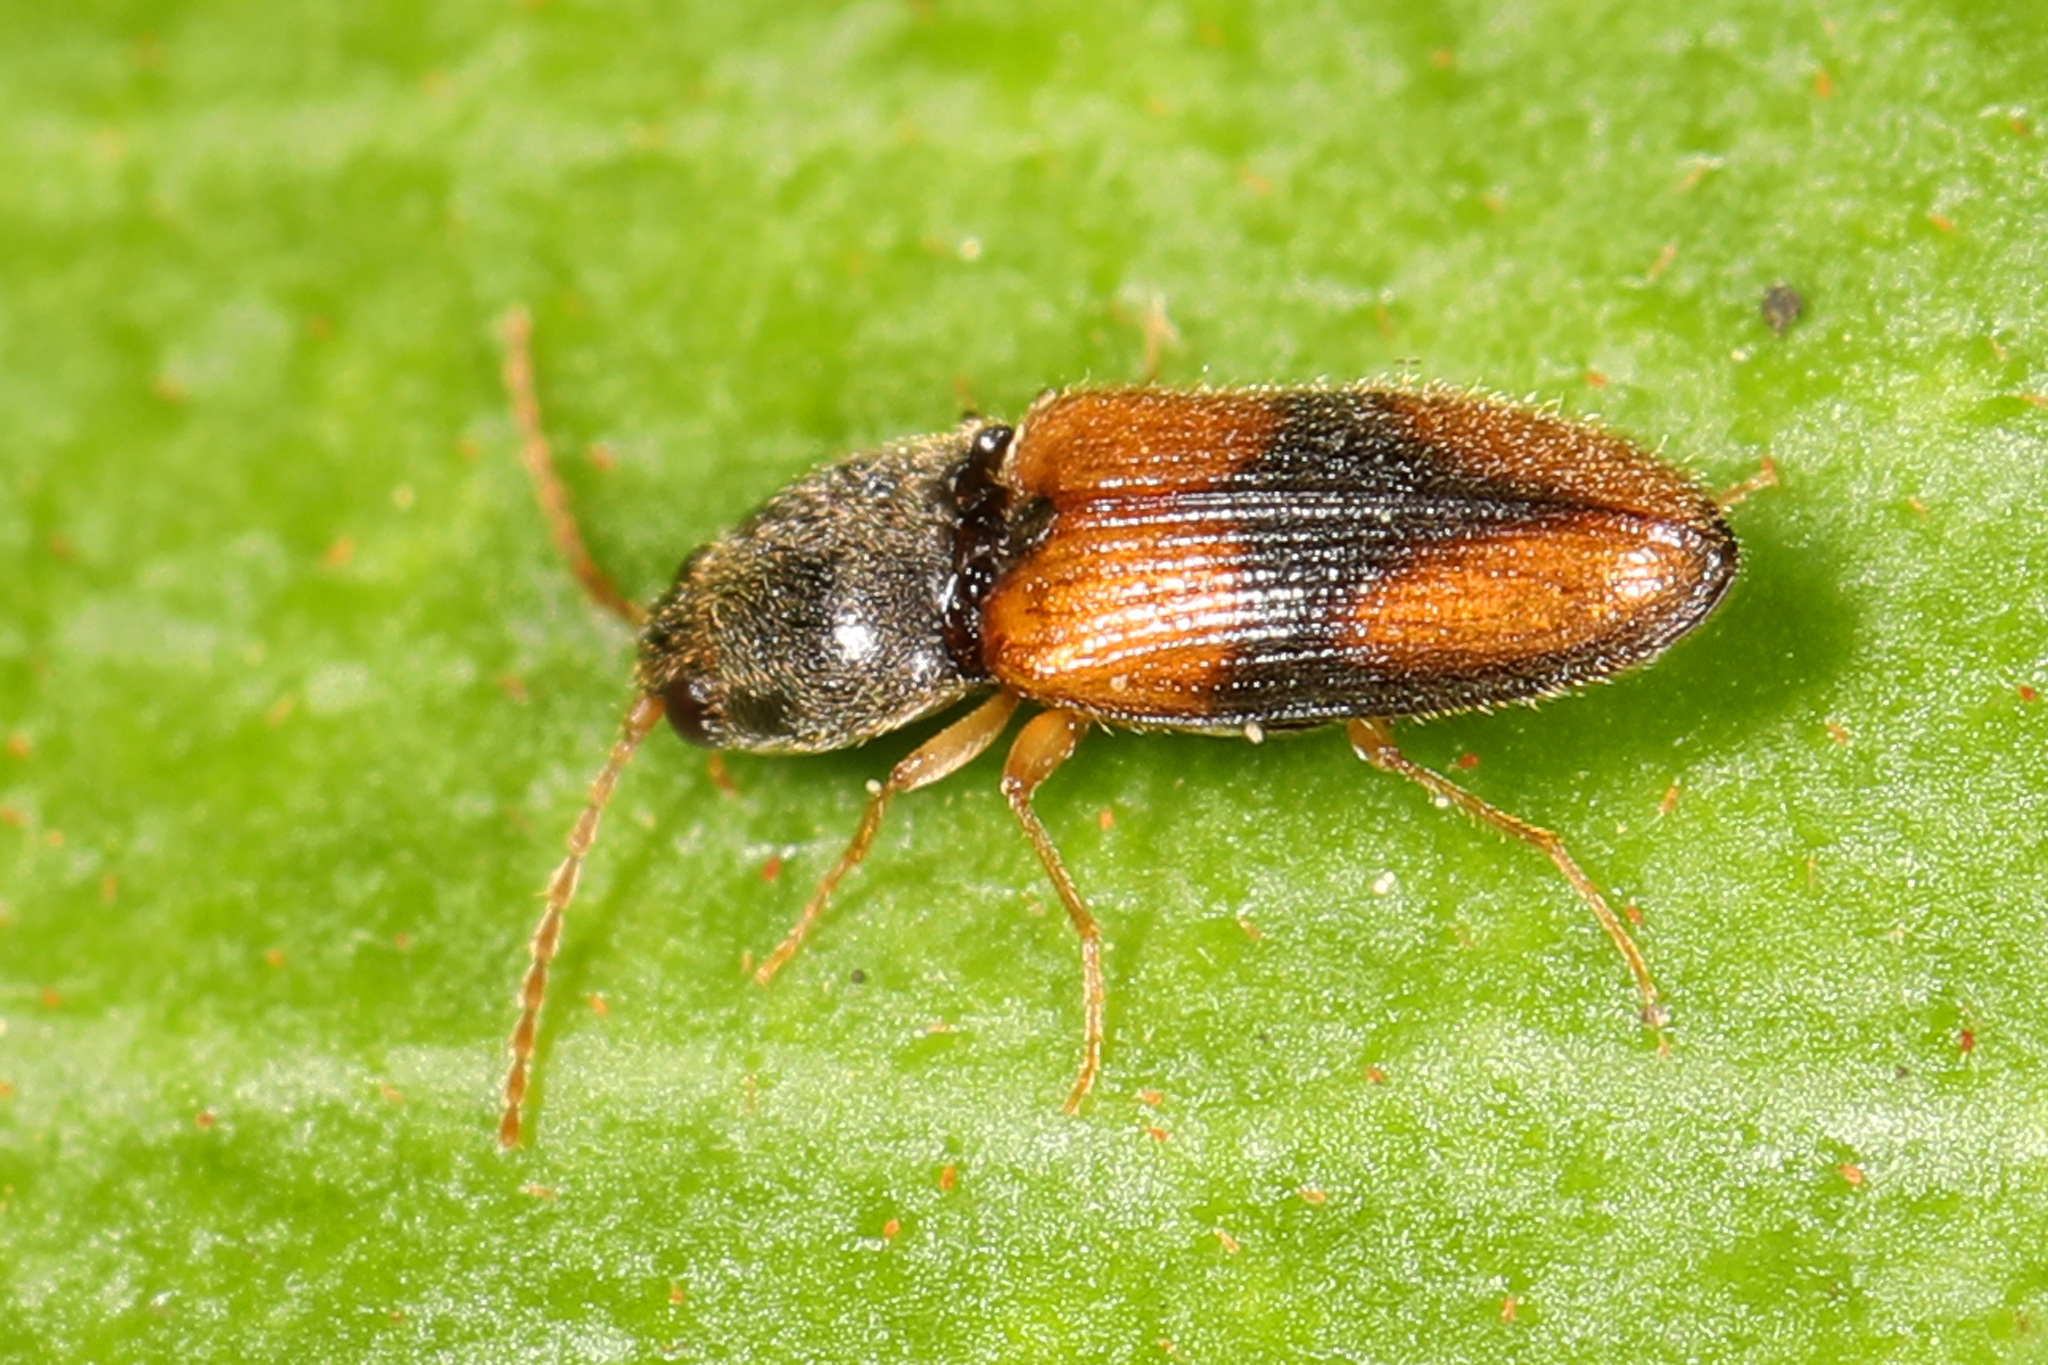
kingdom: Animalia
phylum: Arthropoda
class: Insecta
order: Coleoptera
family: Elateridae
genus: Horistonotus
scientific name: Horistonotus curiatus
